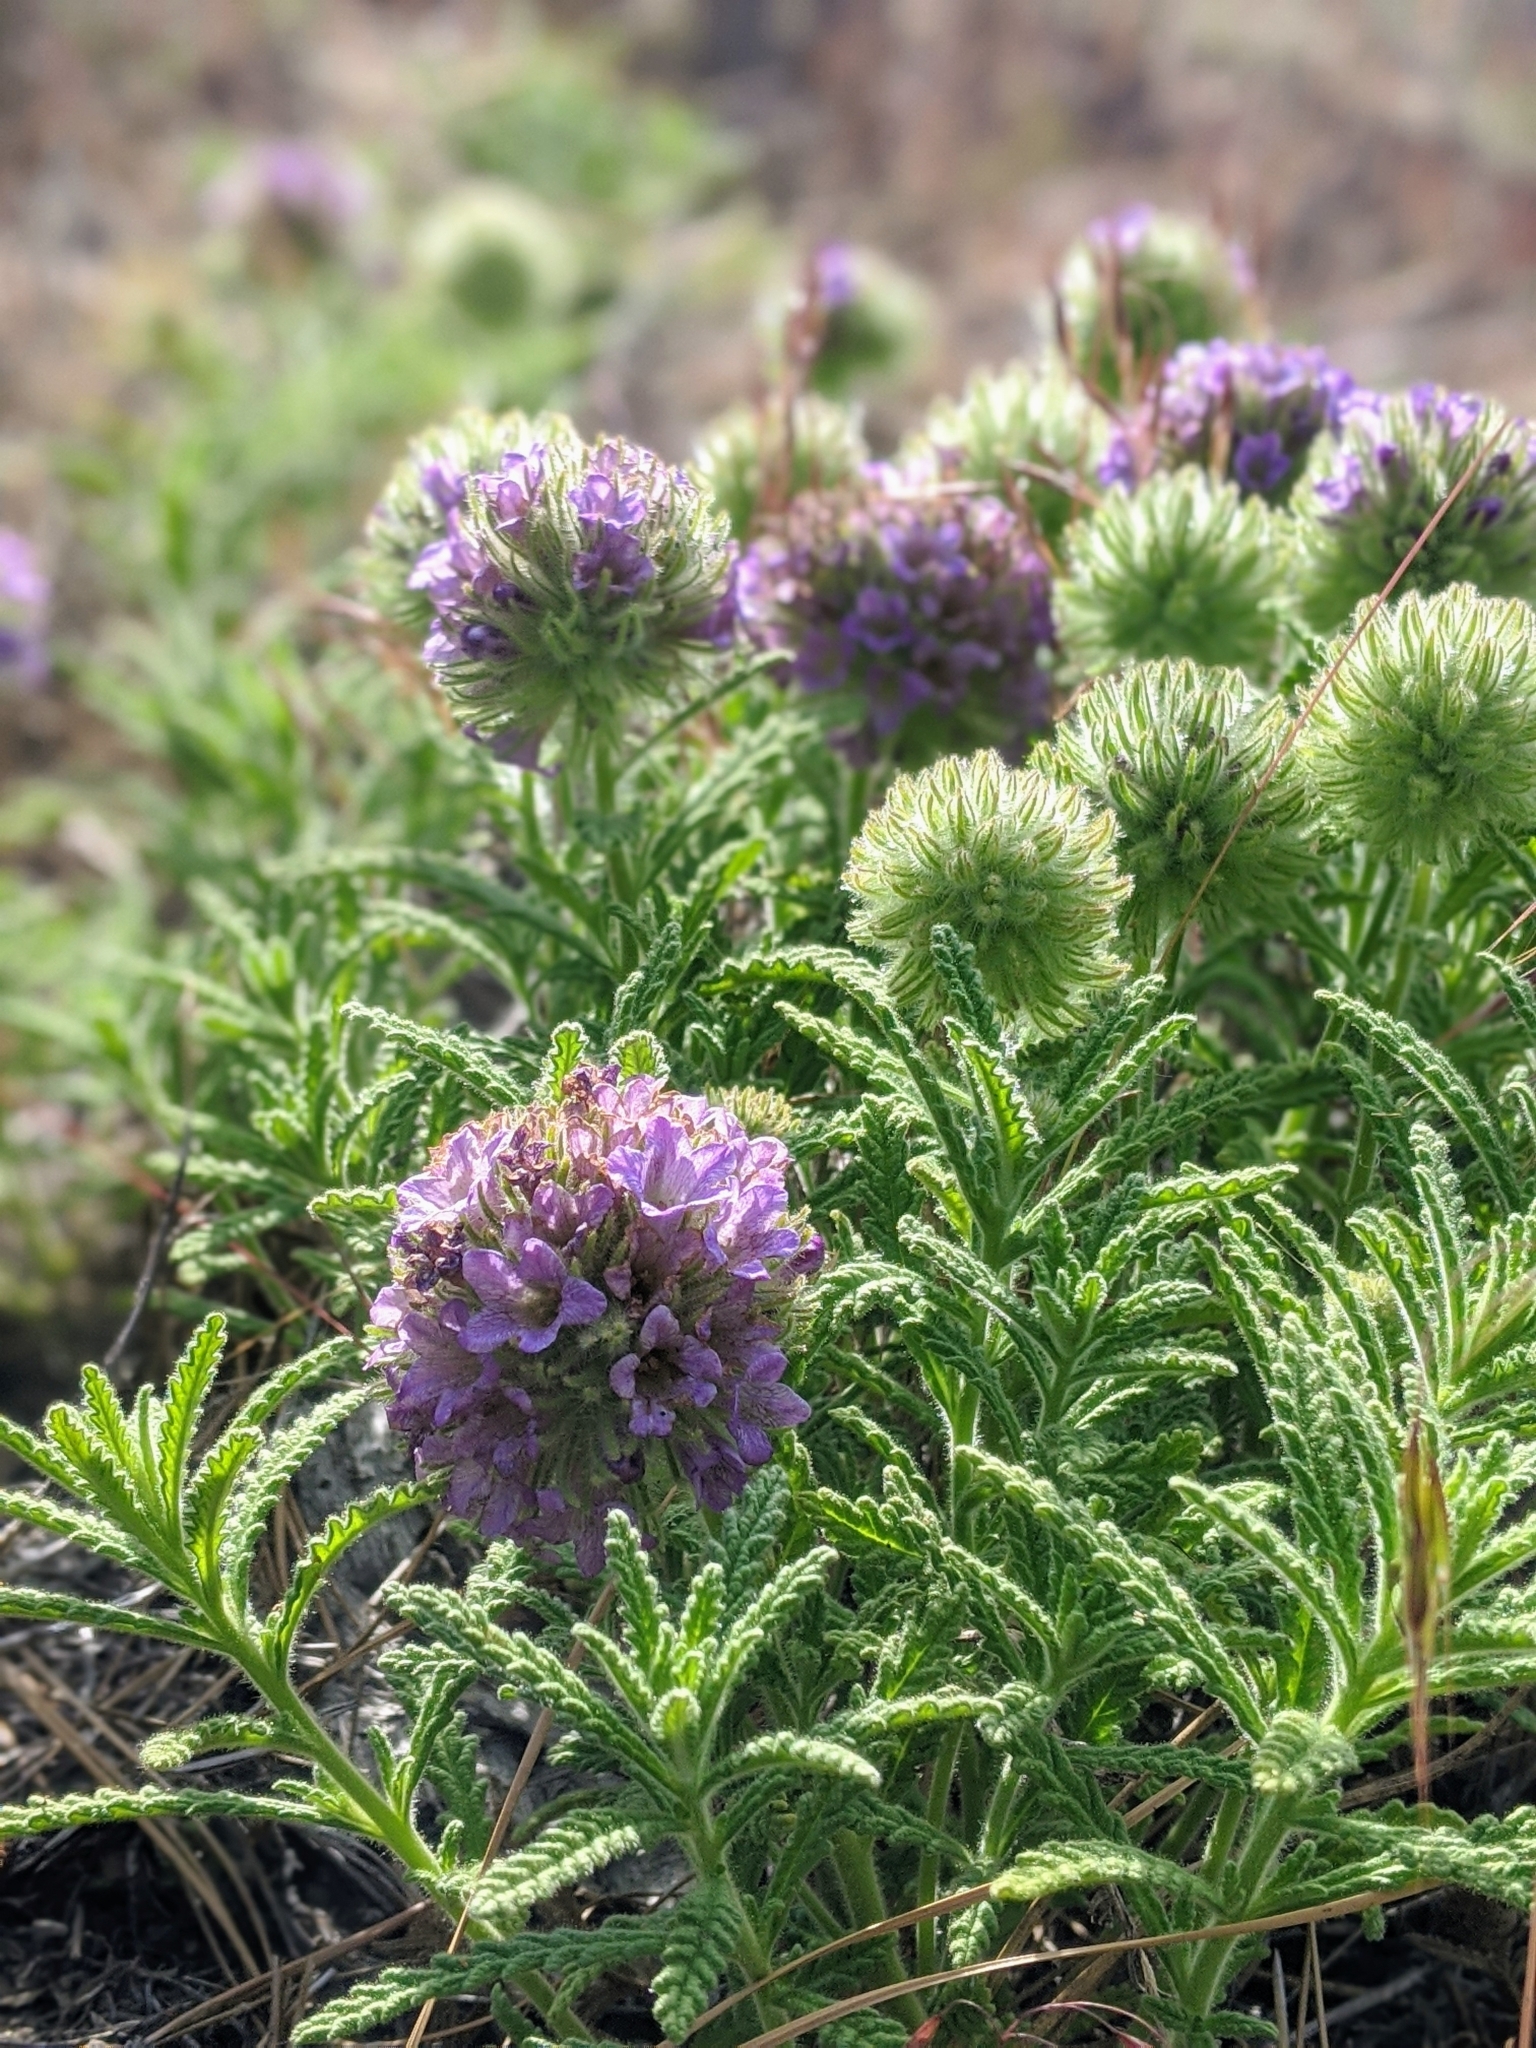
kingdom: Plantae
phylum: Tracheophyta
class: Magnoliopsida
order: Boraginales
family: Namaceae
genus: Nama
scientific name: Nama rothrockii
